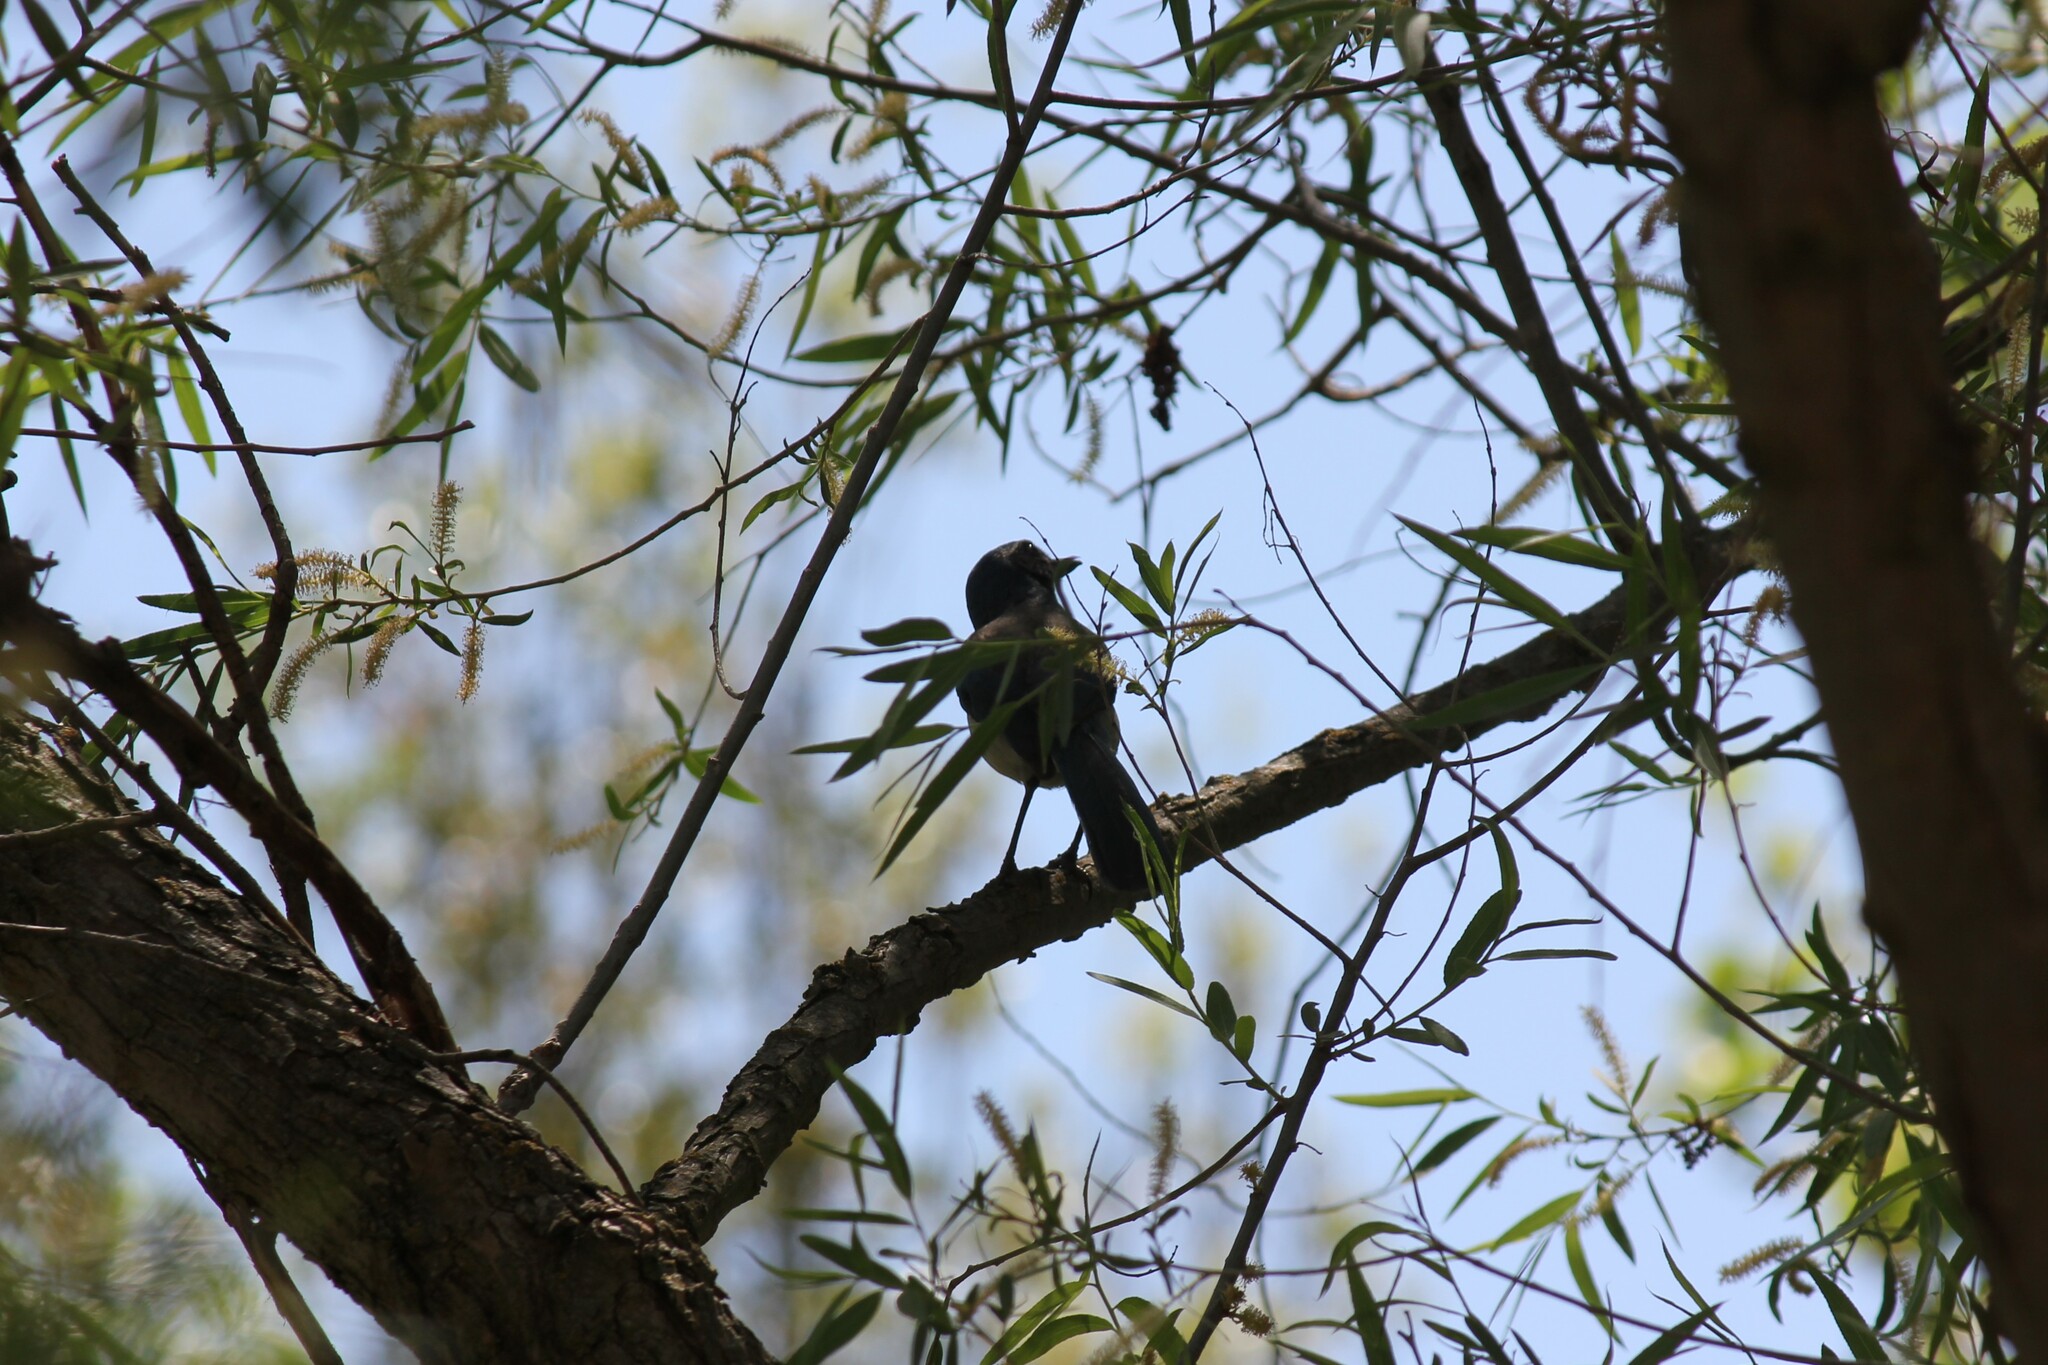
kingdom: Animalia
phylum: Chordata
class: Aves
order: Passeriformes
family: Corvidae
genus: Aphelocoma
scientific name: Aphelocoma californica
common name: California scrub-jay
